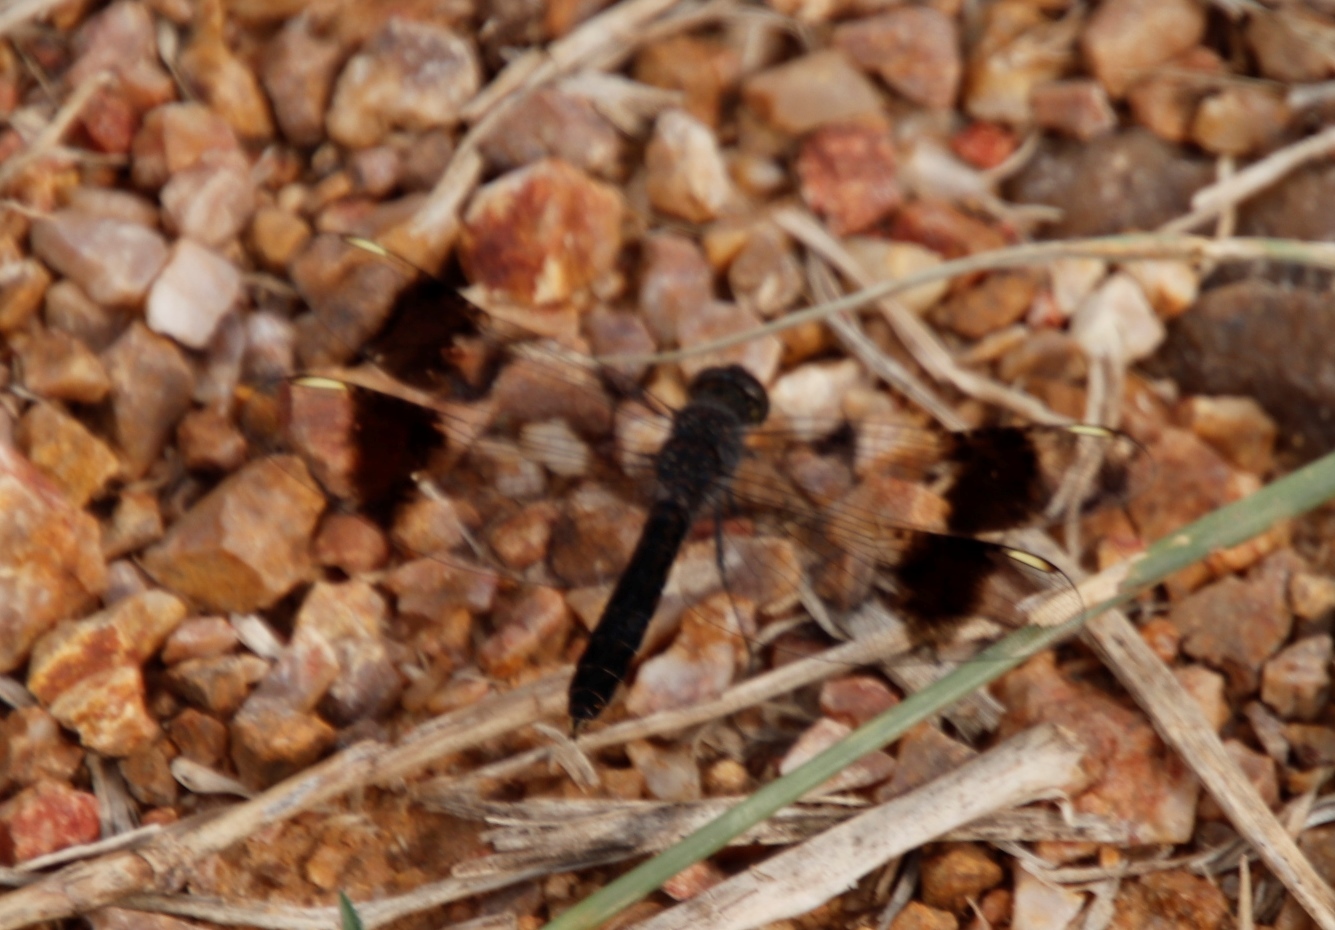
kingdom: Animalia
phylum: Arthropoda
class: Insecta
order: Odonata
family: Libellulidae
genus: Brachythemis
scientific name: Brachythemis leucosticta
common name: Banded groundling
